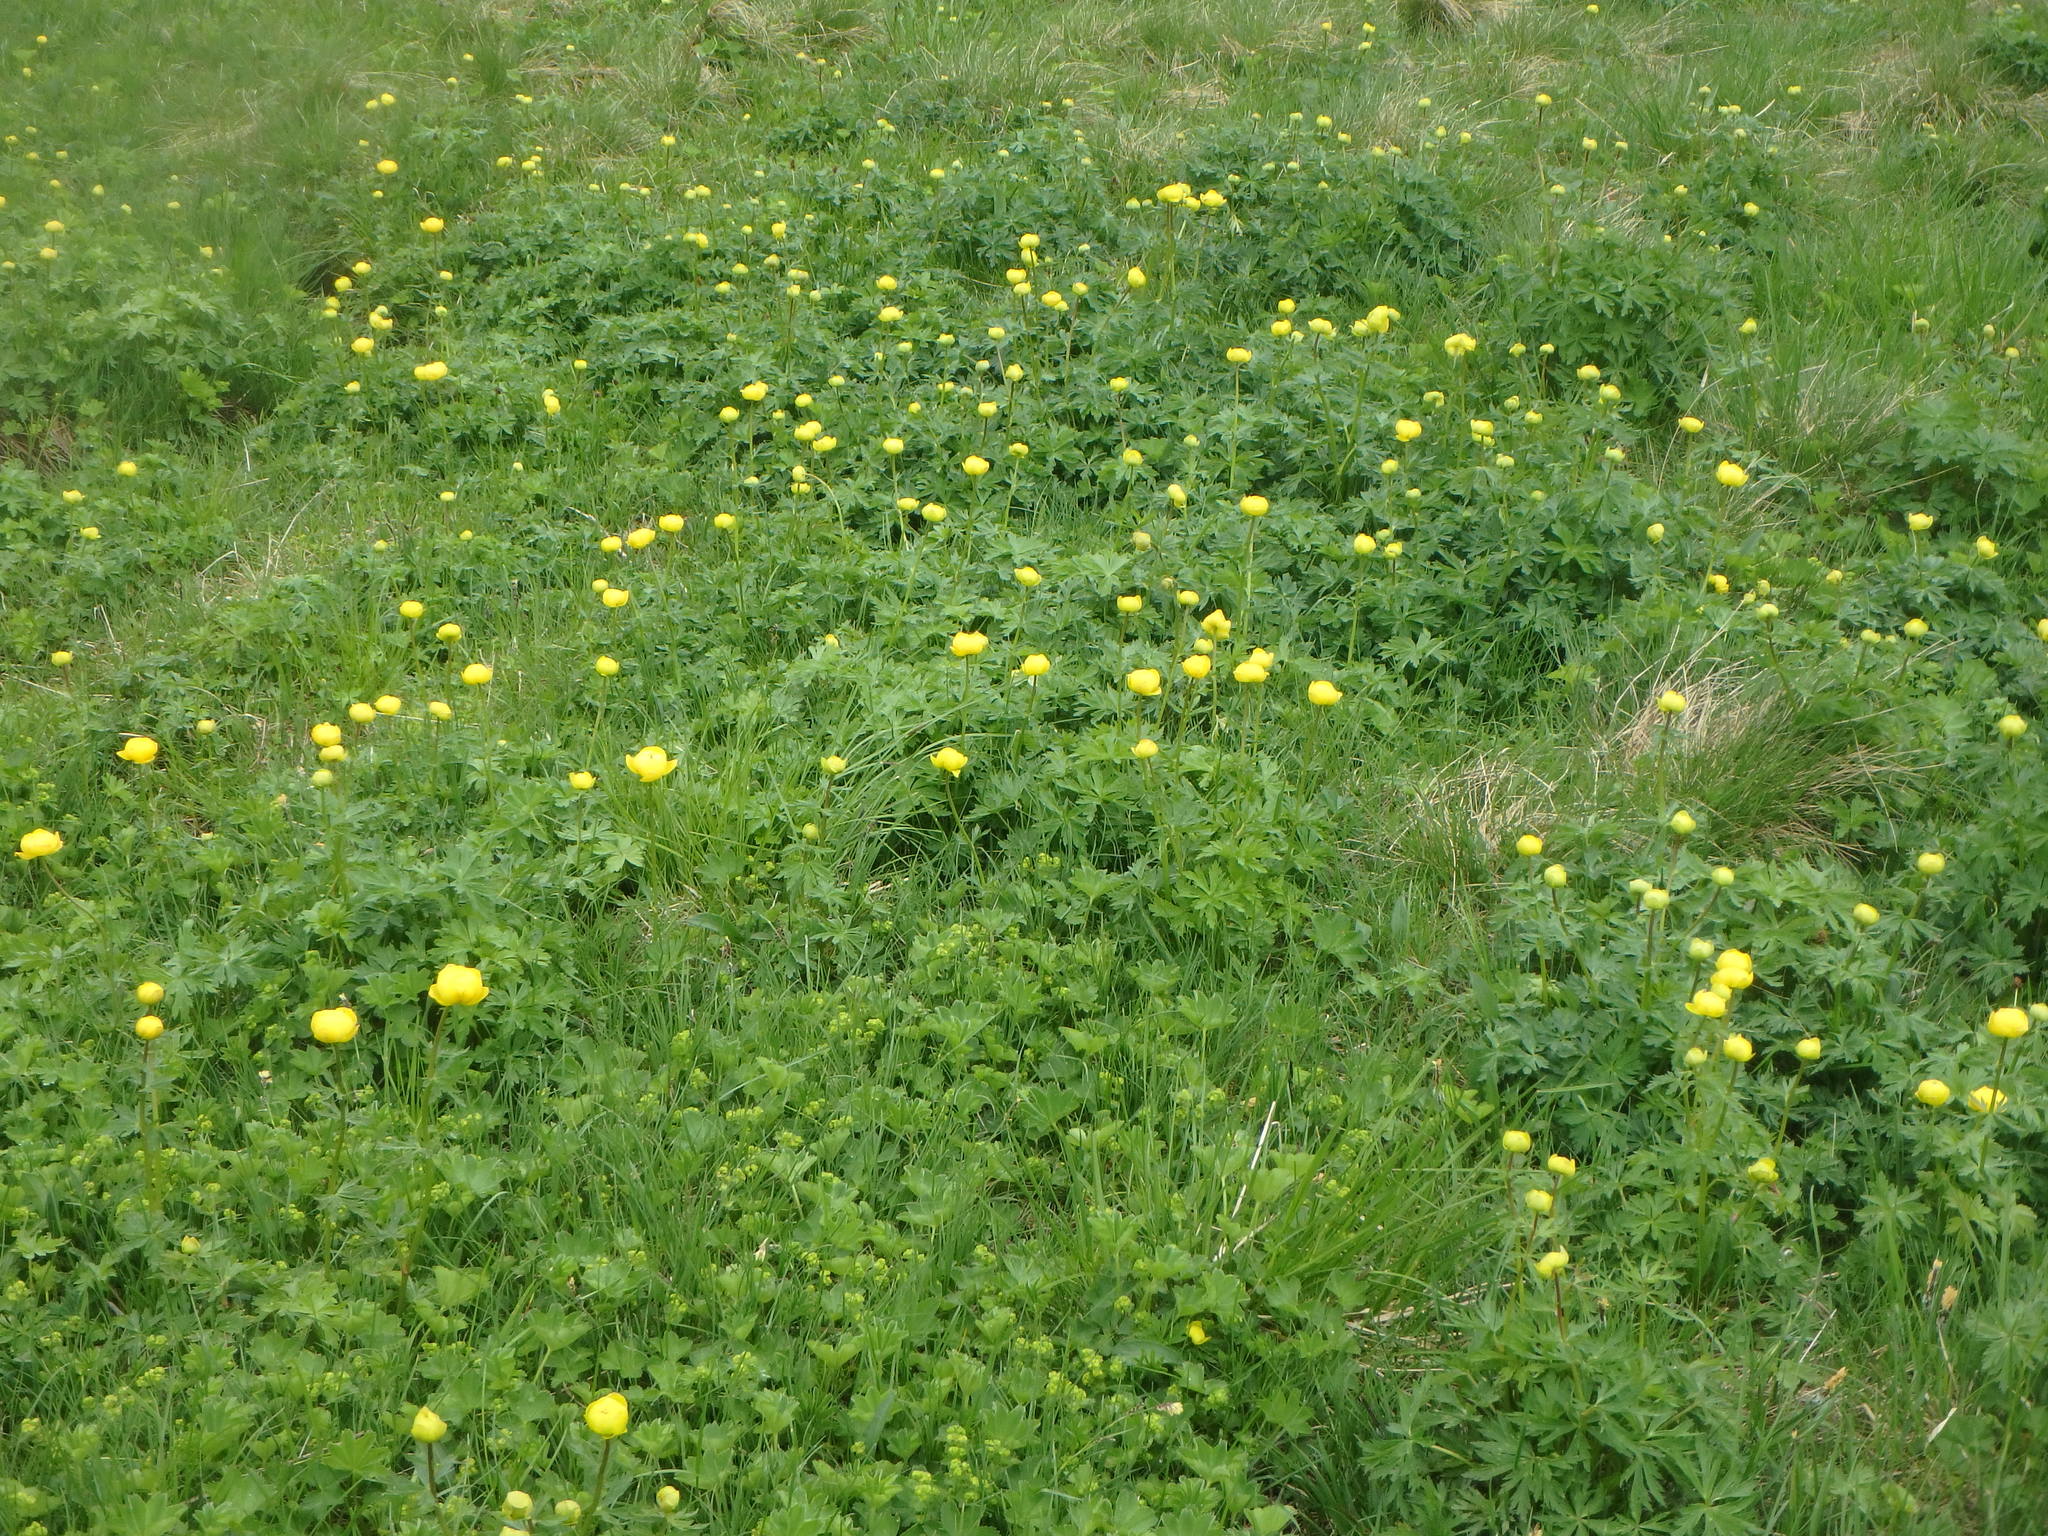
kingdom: Plantae
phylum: Tracheophyta
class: Magnoliopsida
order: Ranunculales
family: Ranunculaceae
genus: Trollius
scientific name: Trollius europaeus
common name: European globeflower
